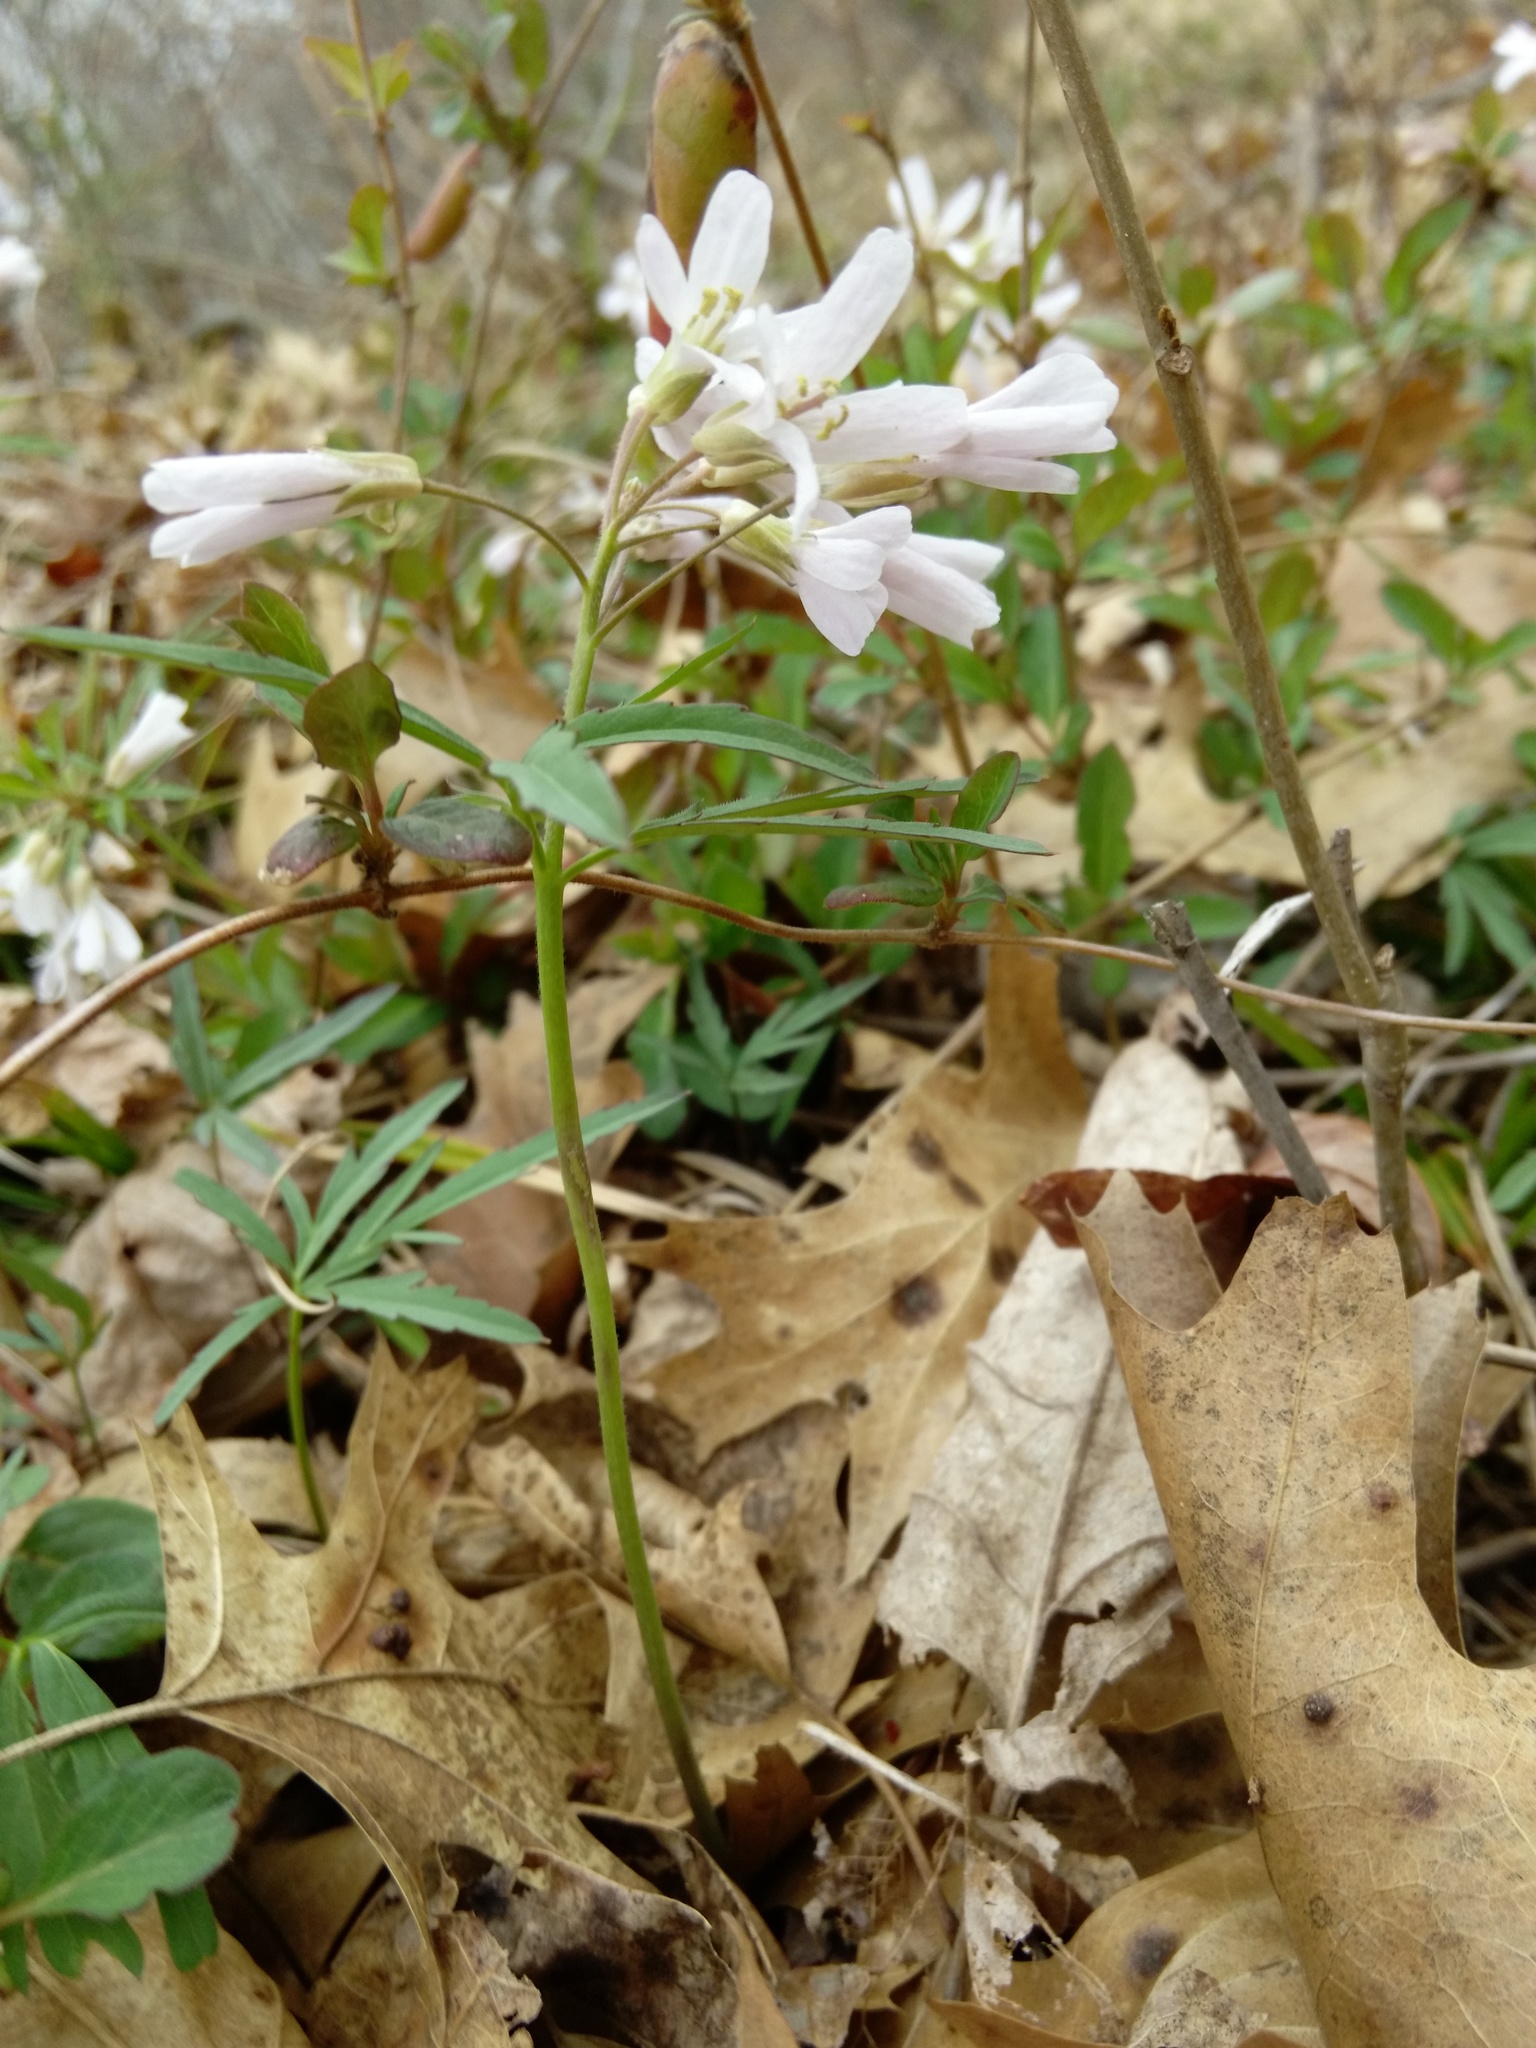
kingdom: Plantae
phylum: Tracheophyta
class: Magnoliopsida
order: Brassicales
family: Brassicaceae
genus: Cardamine
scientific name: Cardamine concatenata
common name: Cut-leaf toothcup
